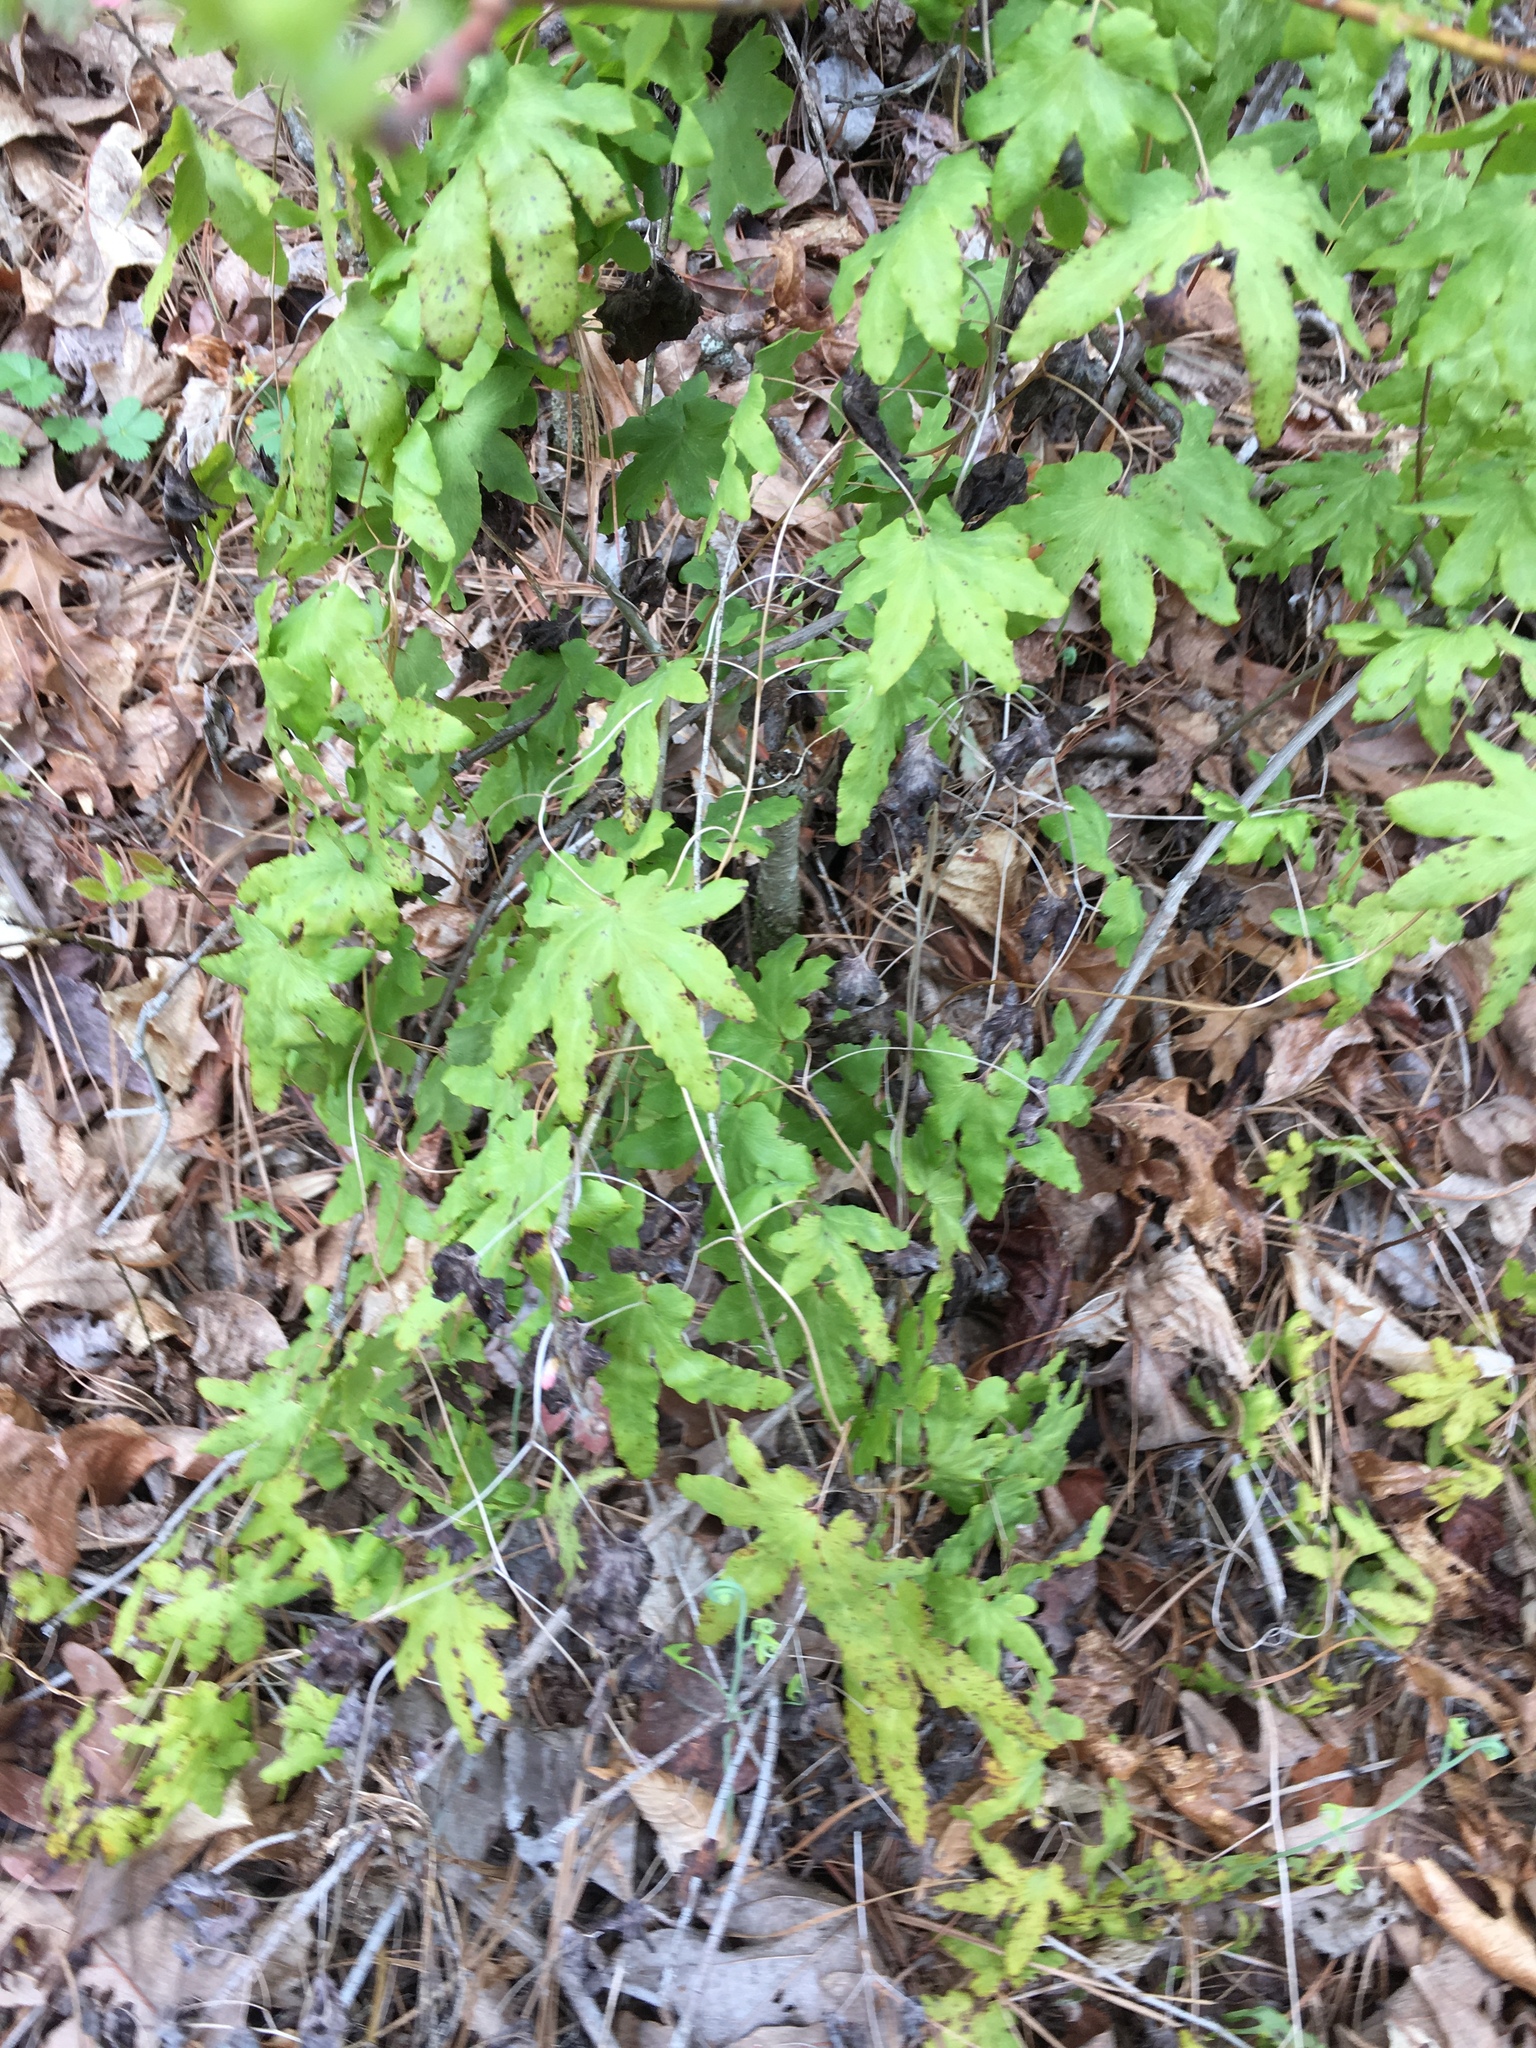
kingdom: Plantae
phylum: Tracheophyta
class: Polypodiopsida
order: Schizaeales
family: Lygodiaceae
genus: Lygodium
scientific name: Lygodium palmatum
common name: American climbing fern
